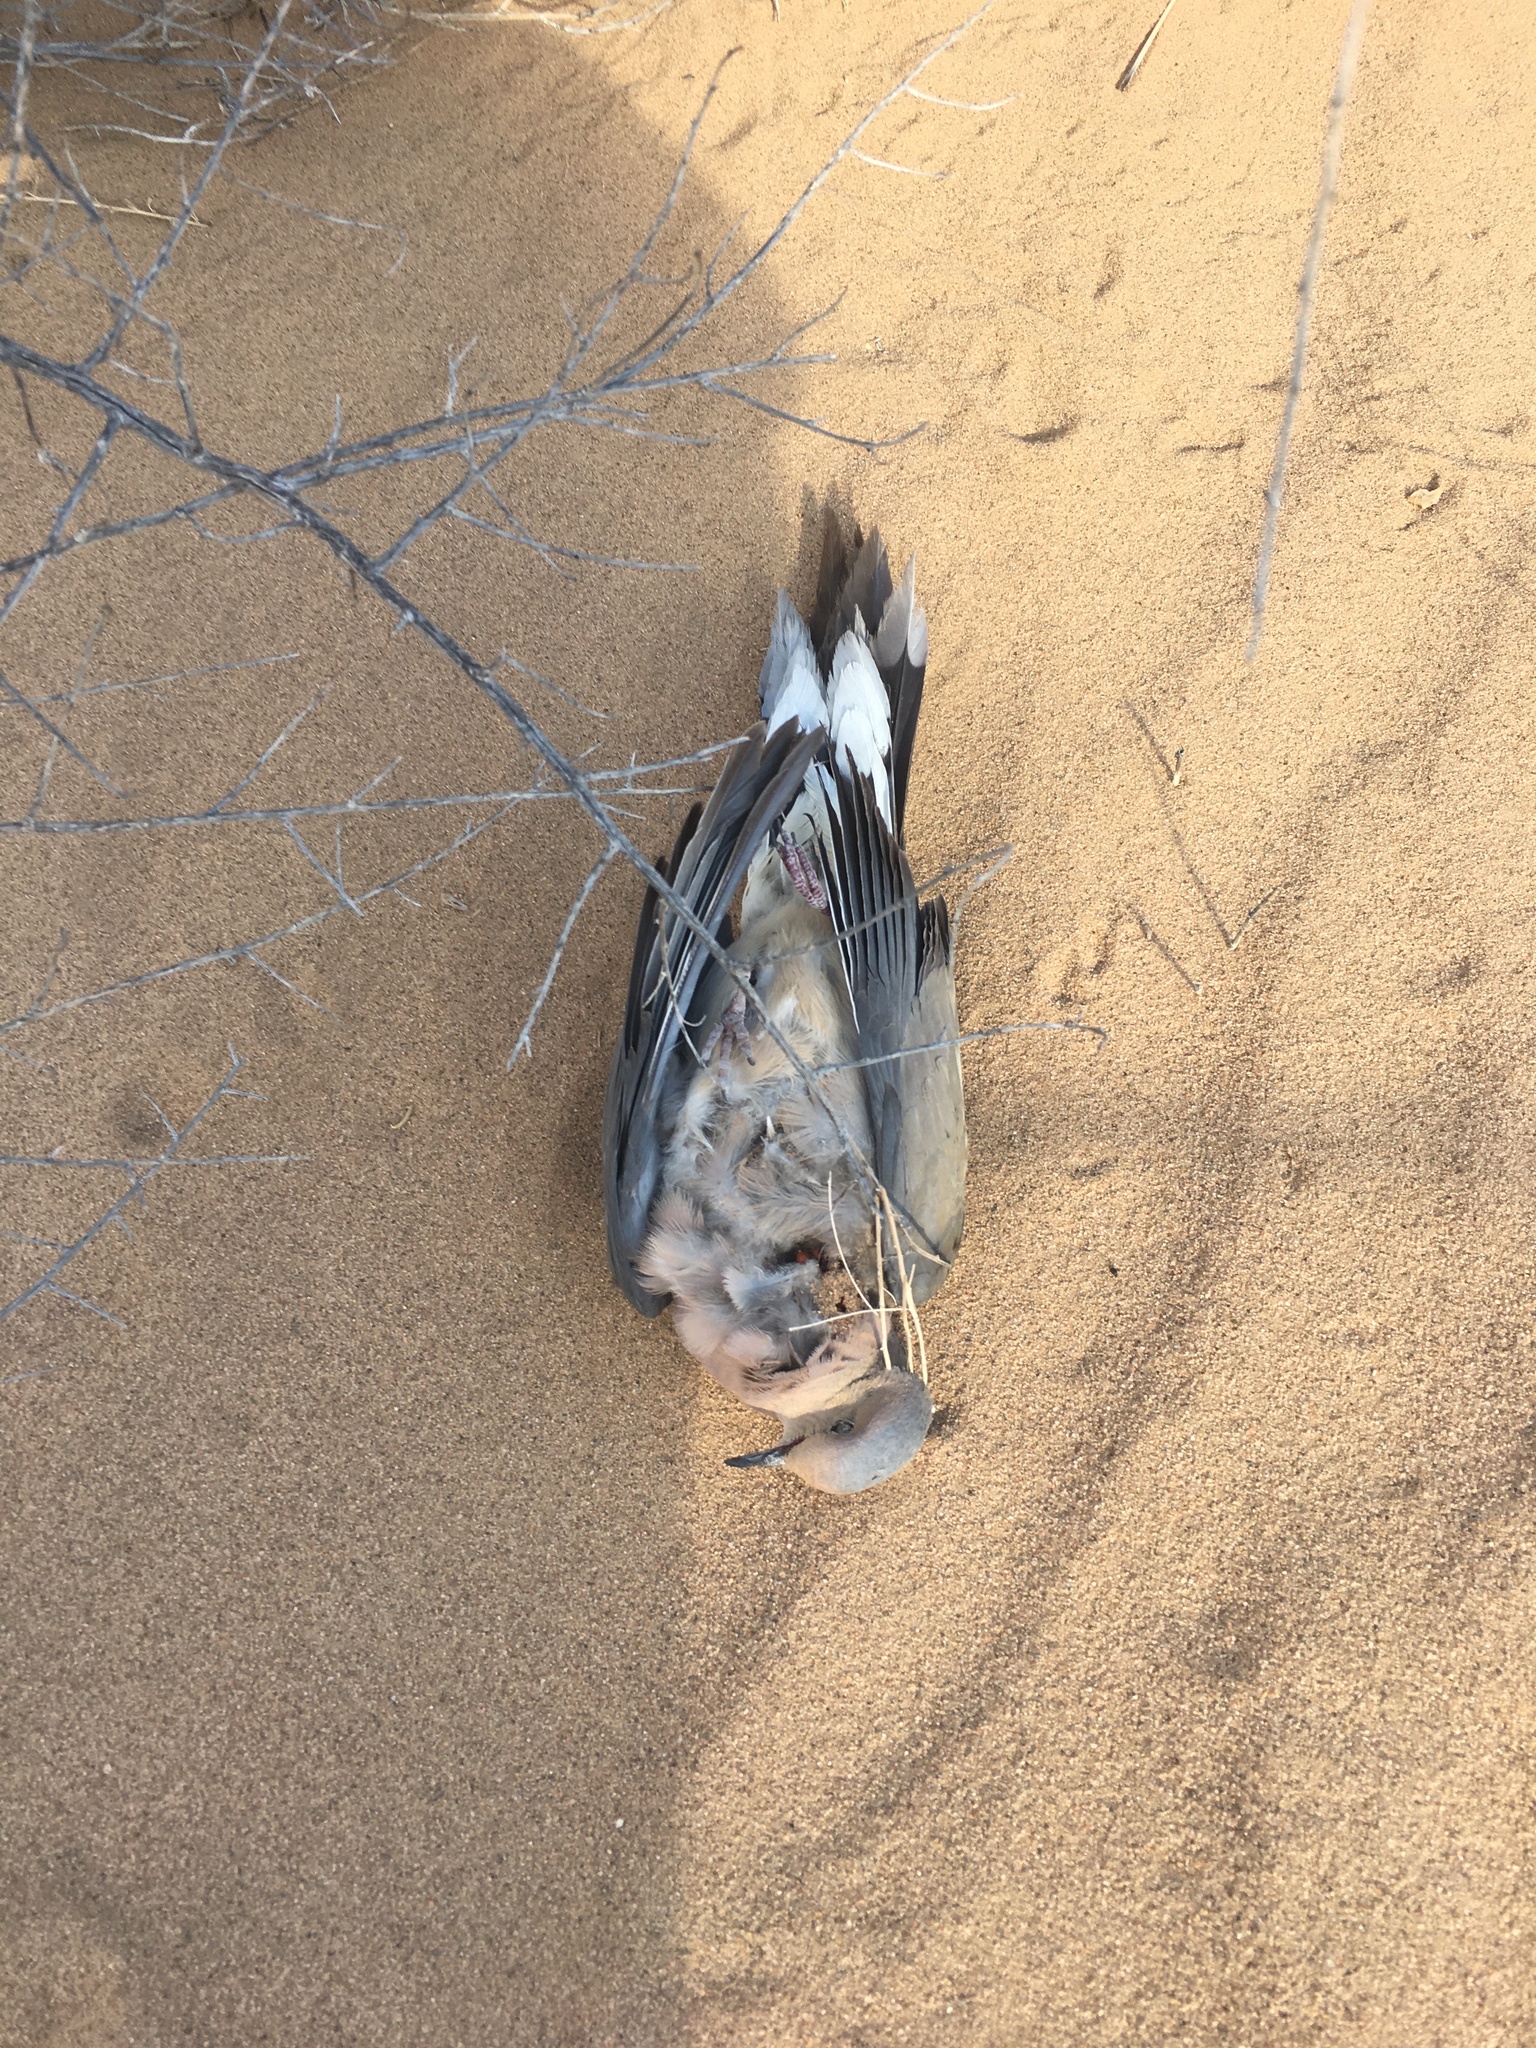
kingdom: Animalia
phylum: Chordata
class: Aves
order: Columbiformes
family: Columbidae
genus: Zenaida
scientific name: Zenaida macroura
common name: Mourning dove
